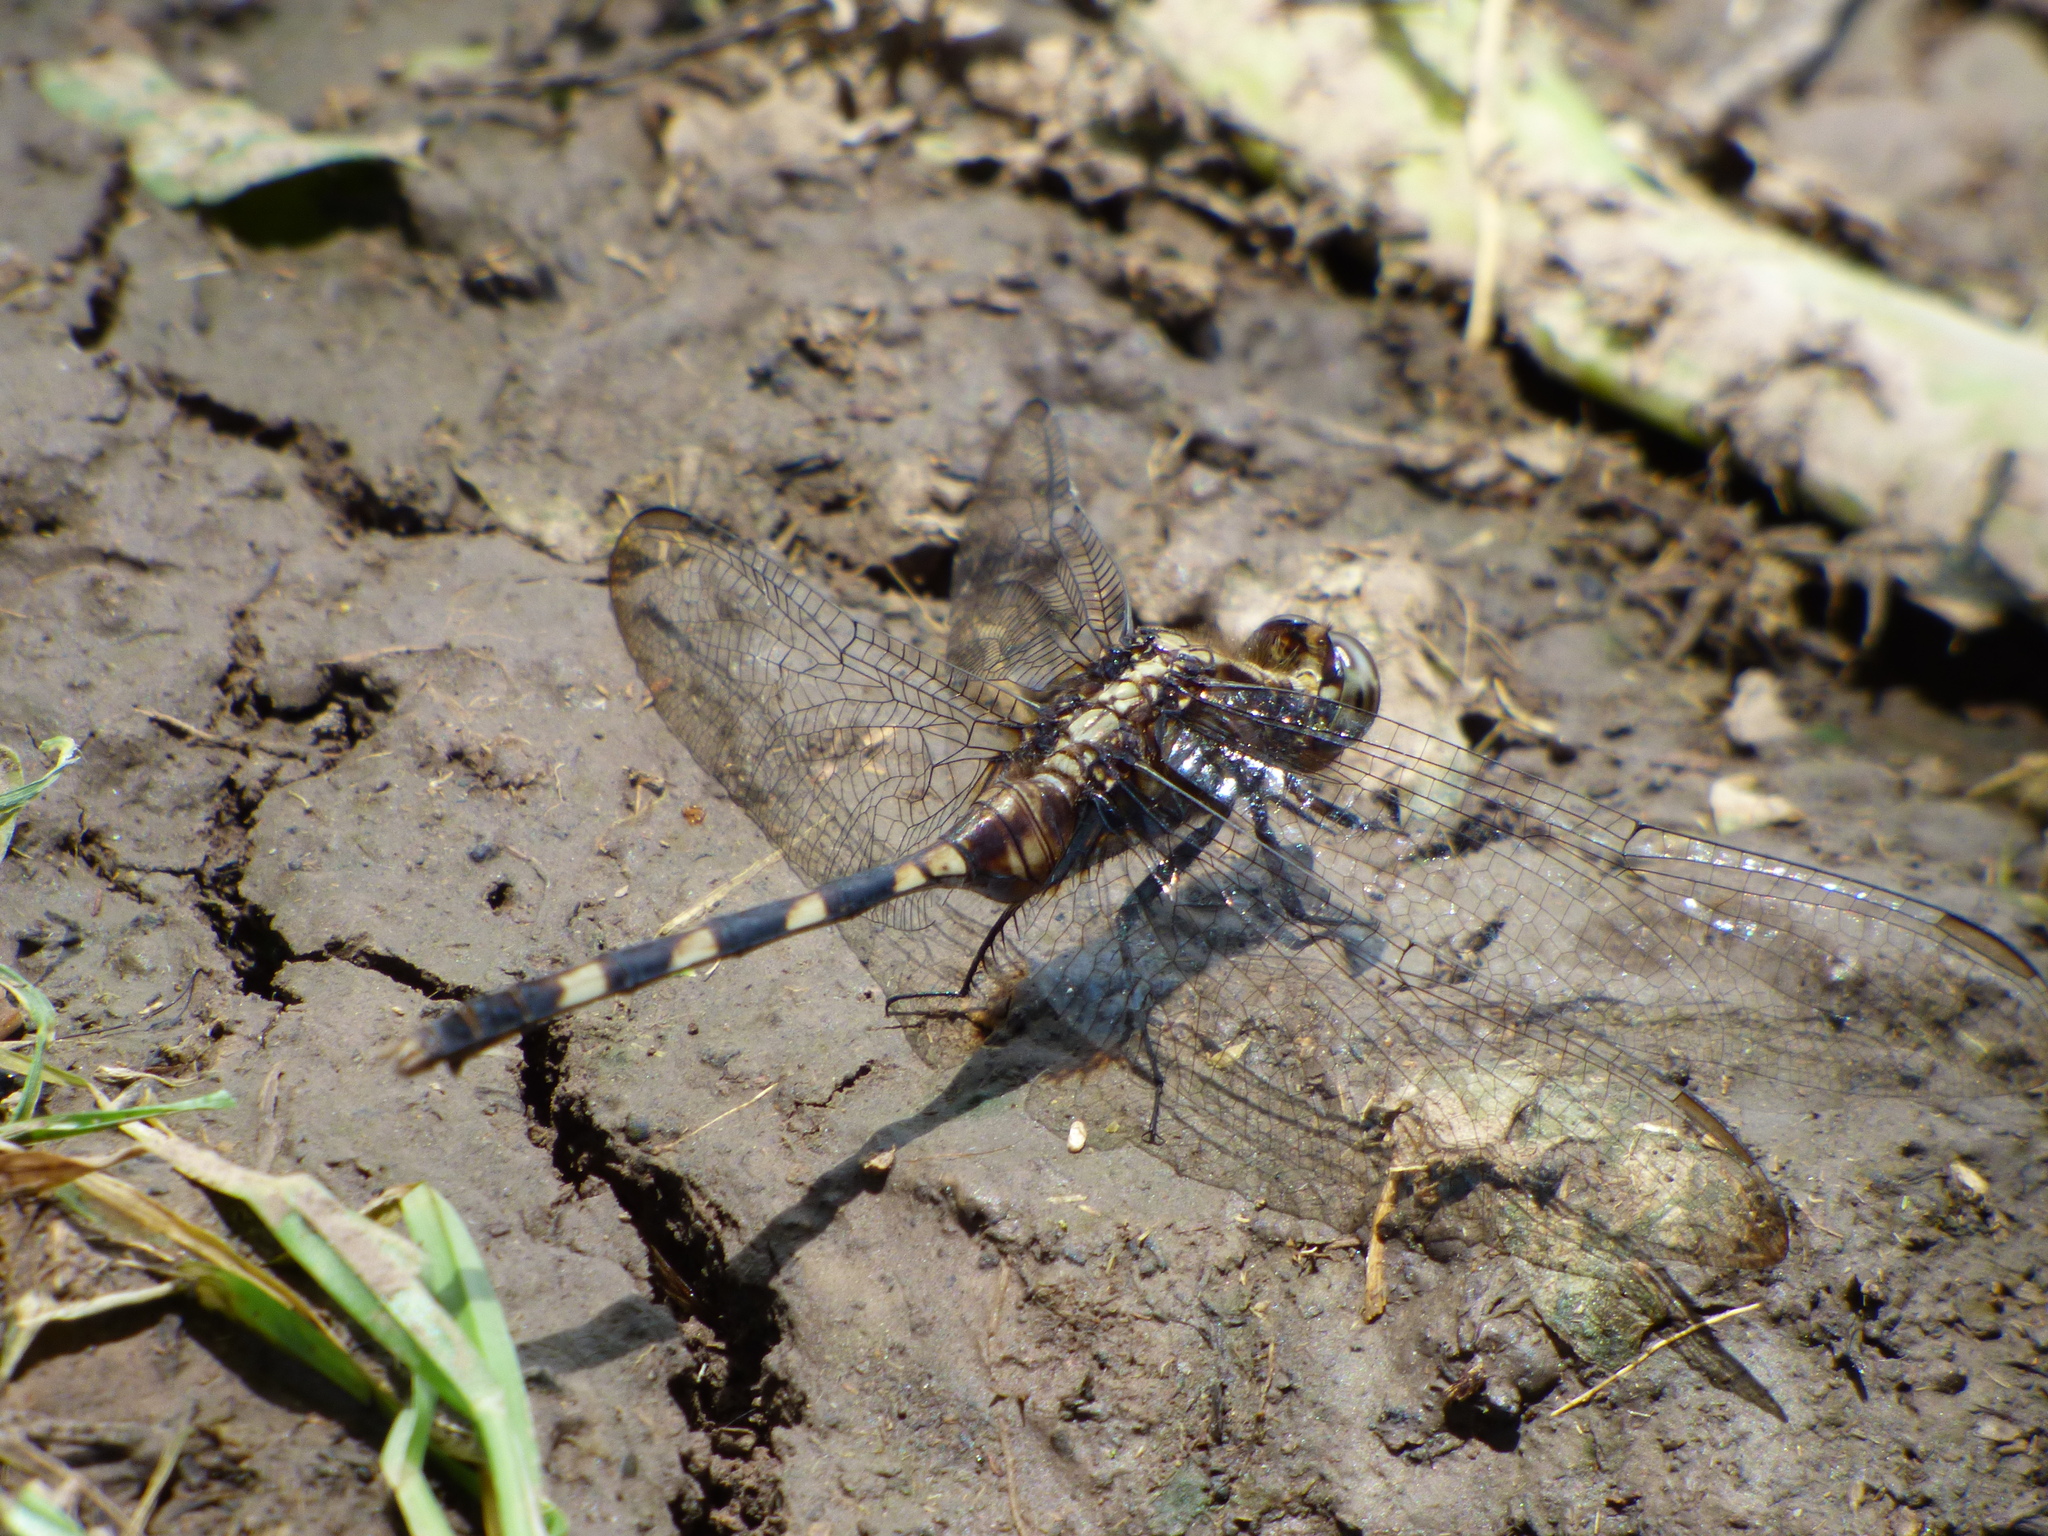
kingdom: Animalia
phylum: Arthropoda
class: Insecta
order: Odonata
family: Libellulidae
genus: Erythemis
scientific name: Erythemis plebeja
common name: Pin-tailed pondhawk
